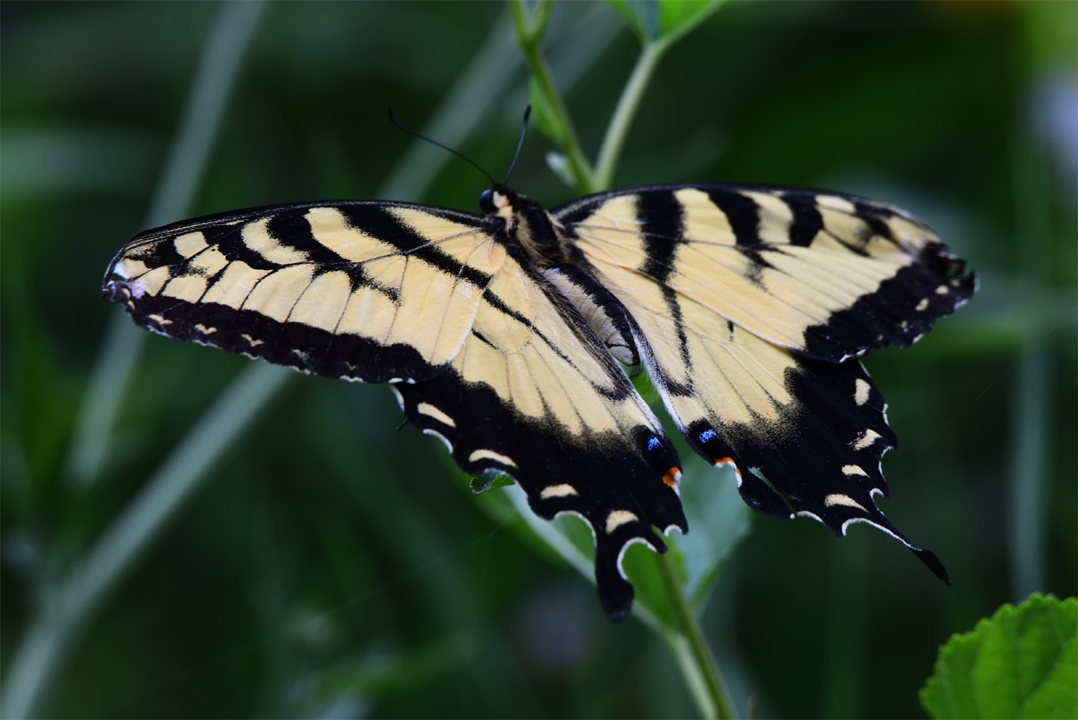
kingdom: Animalia
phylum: Arthropoda
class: Insecta
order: Lepidoptera
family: Papilionidae
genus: Papilio
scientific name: Papilio glaucus
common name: Tiger swallowtail
